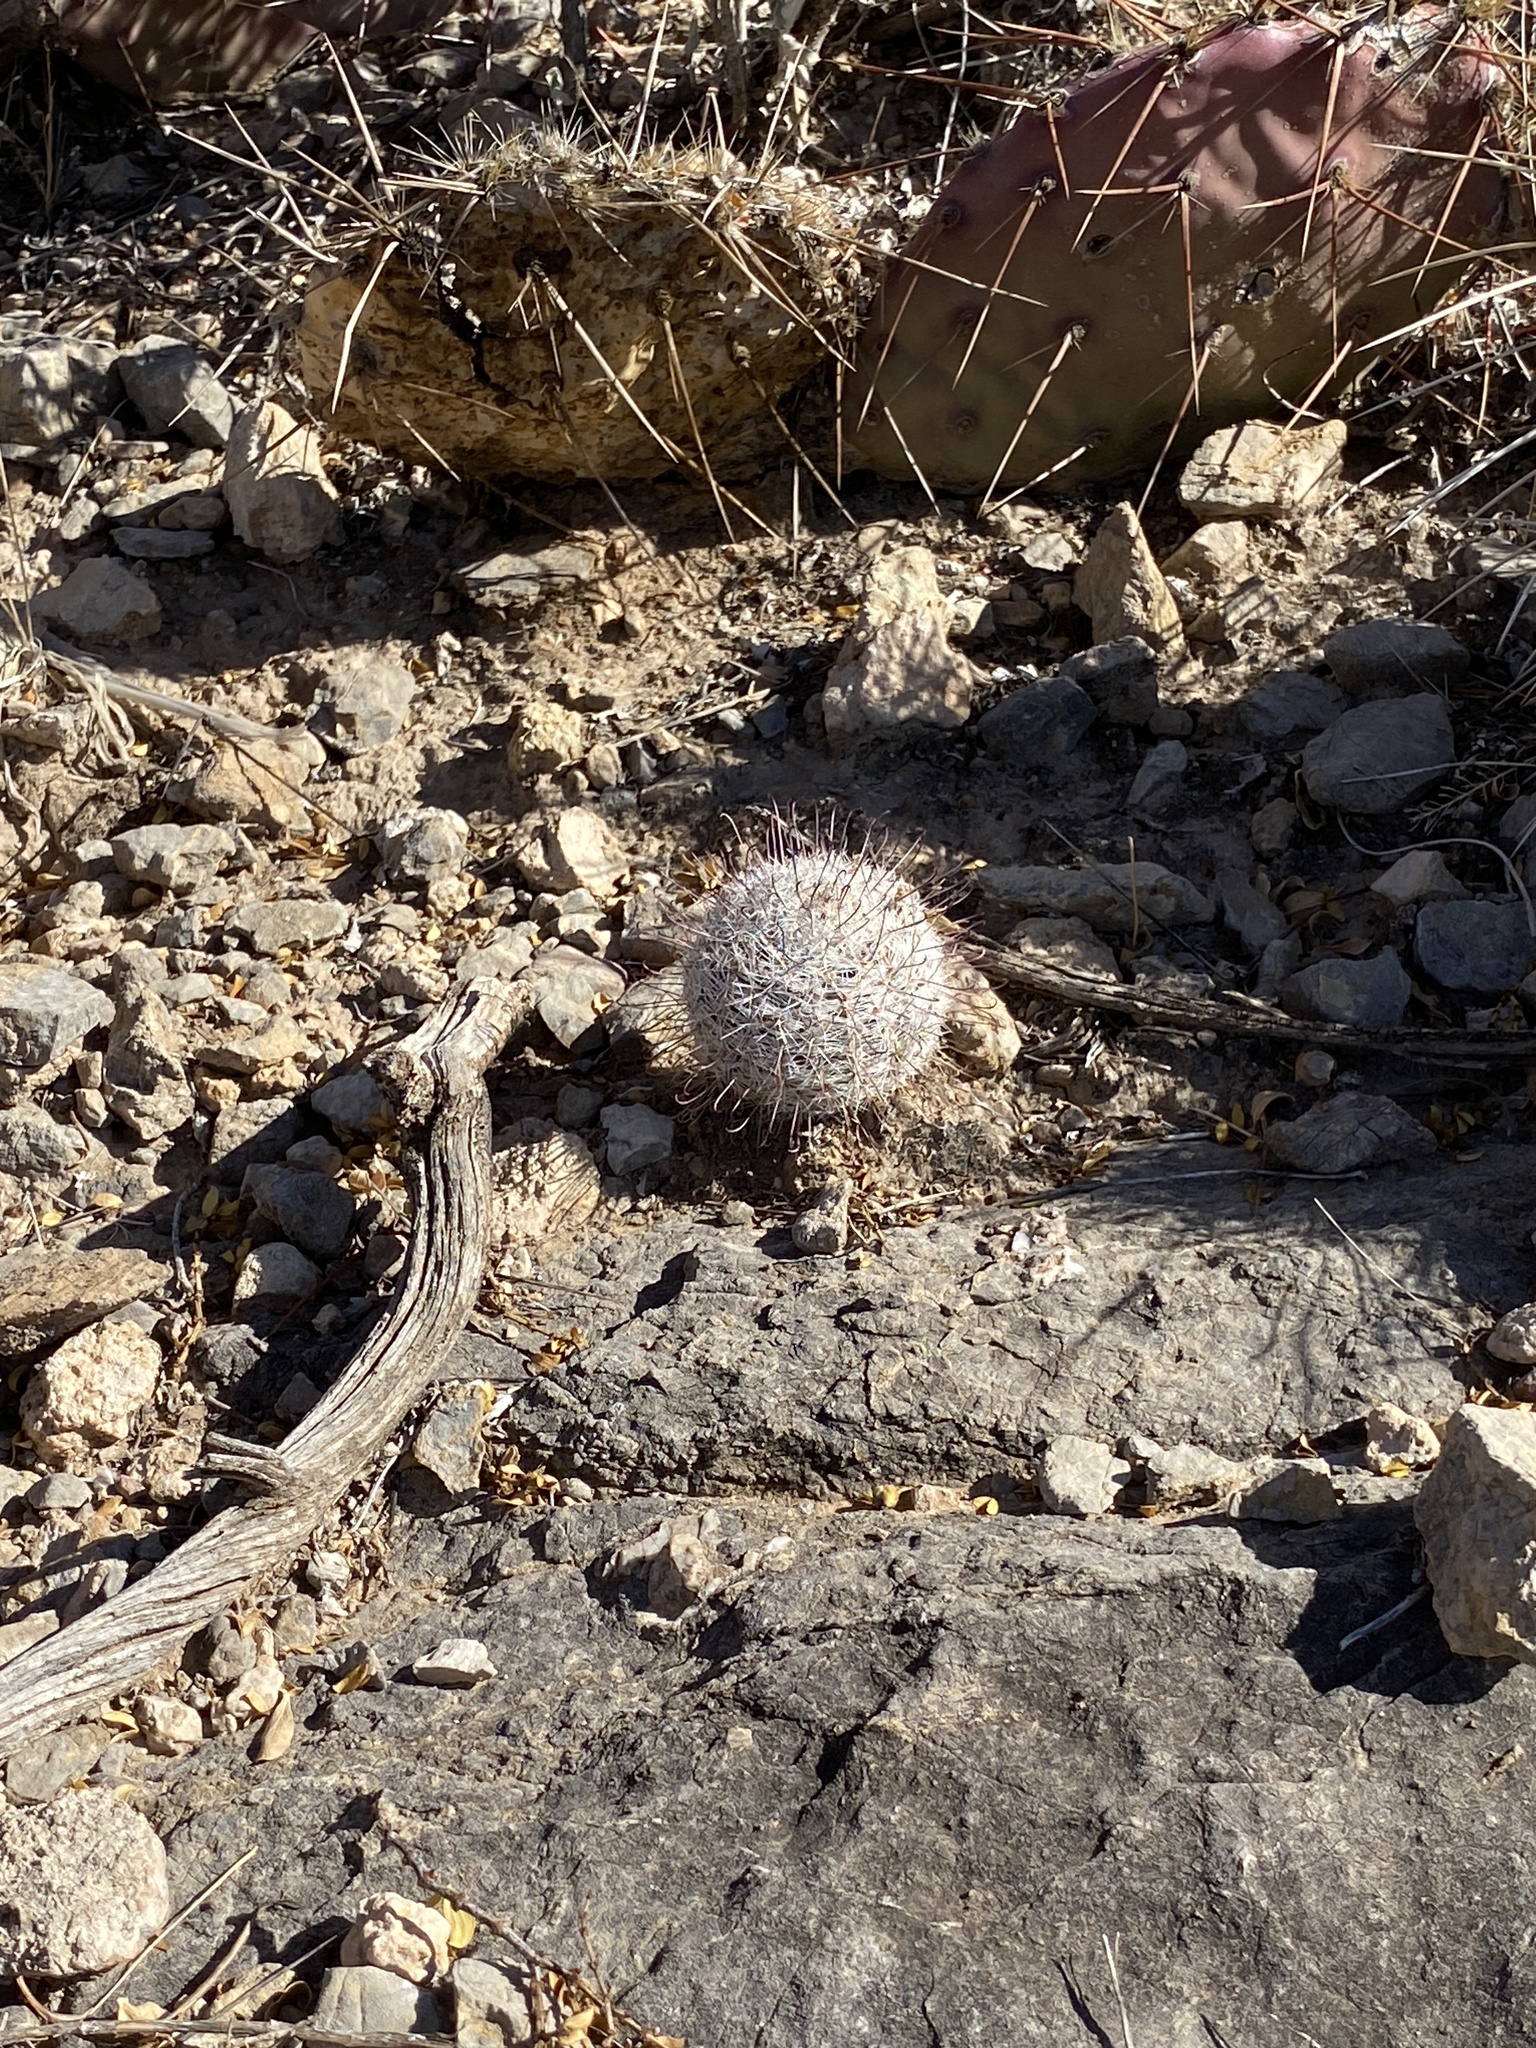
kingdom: Plantae
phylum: Tracheophyta
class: Magnoliopsida
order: Caryophyllales
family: Cactaceae
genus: Cochemiea
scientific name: Cochemiea grahamii
